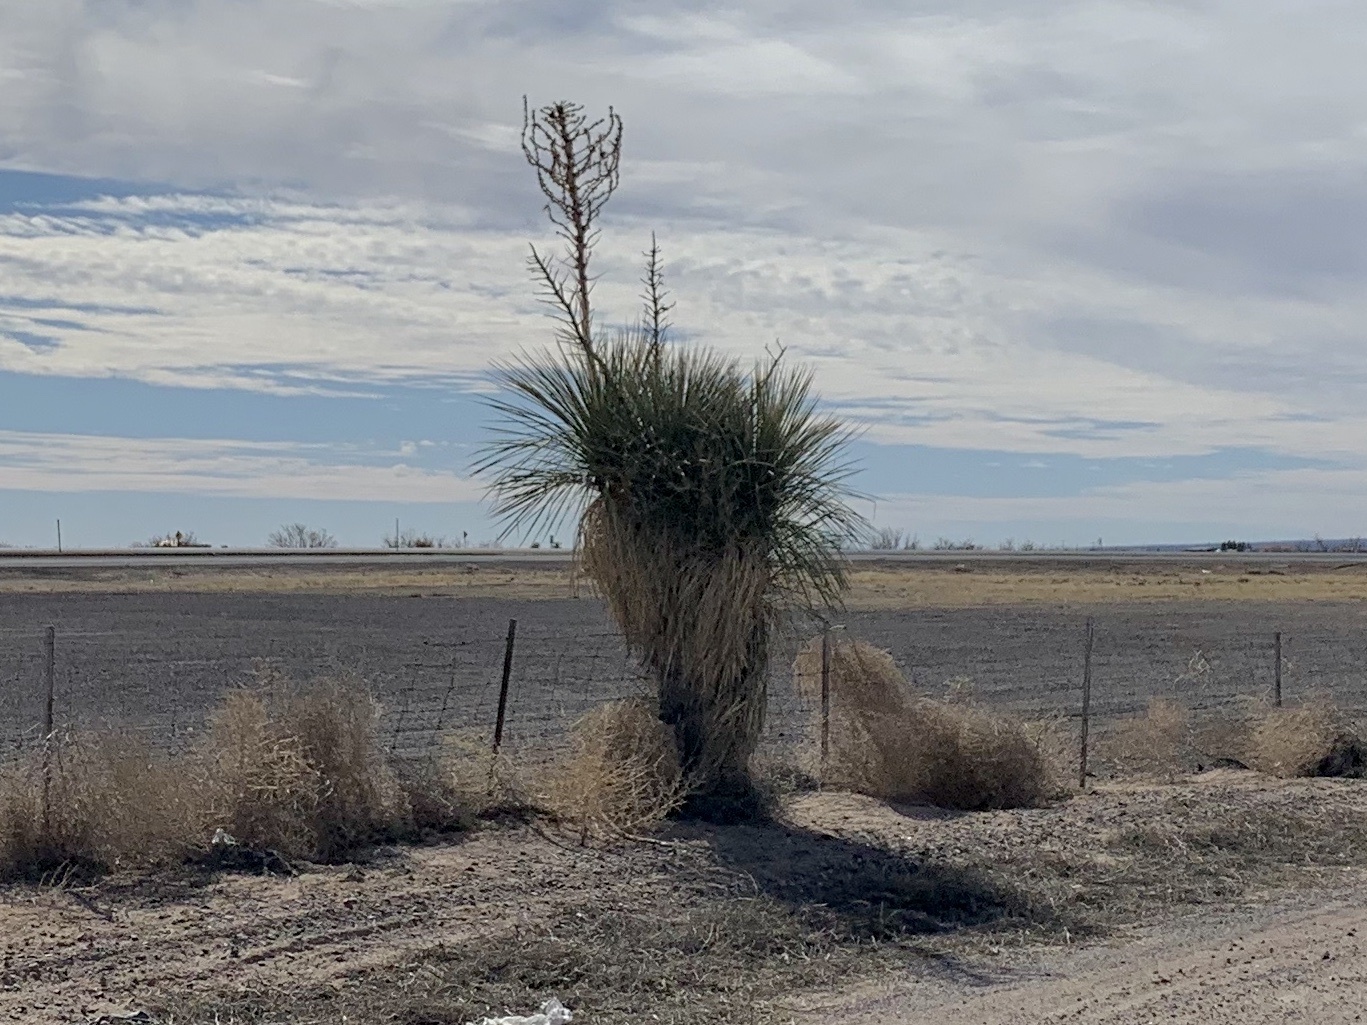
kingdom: Plantae
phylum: Tracheophyta
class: Liliopsida
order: Asparagales
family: Asparagaceae
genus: Yucca
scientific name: Yucca elata
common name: Palmella
